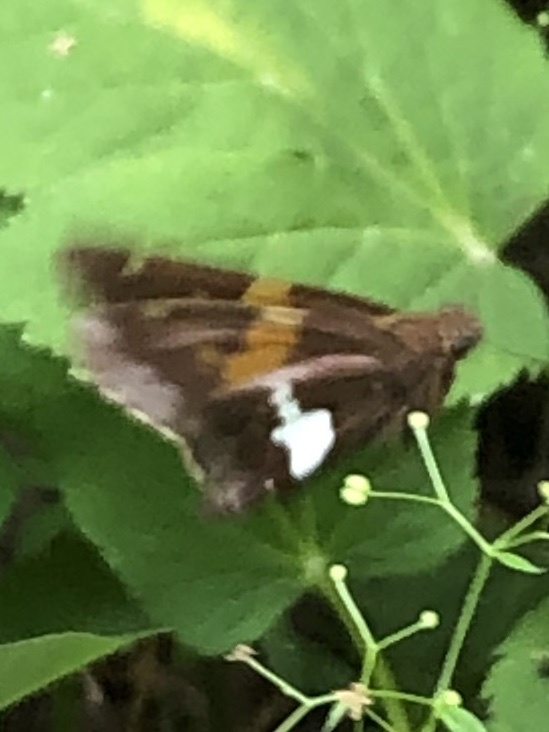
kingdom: Animalia
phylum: Arthropoda
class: Insecta
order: Lepidoptera
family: Hesperiidae
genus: Epargyreus
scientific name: Epargyreus clarus
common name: Silver-spotted skipper
